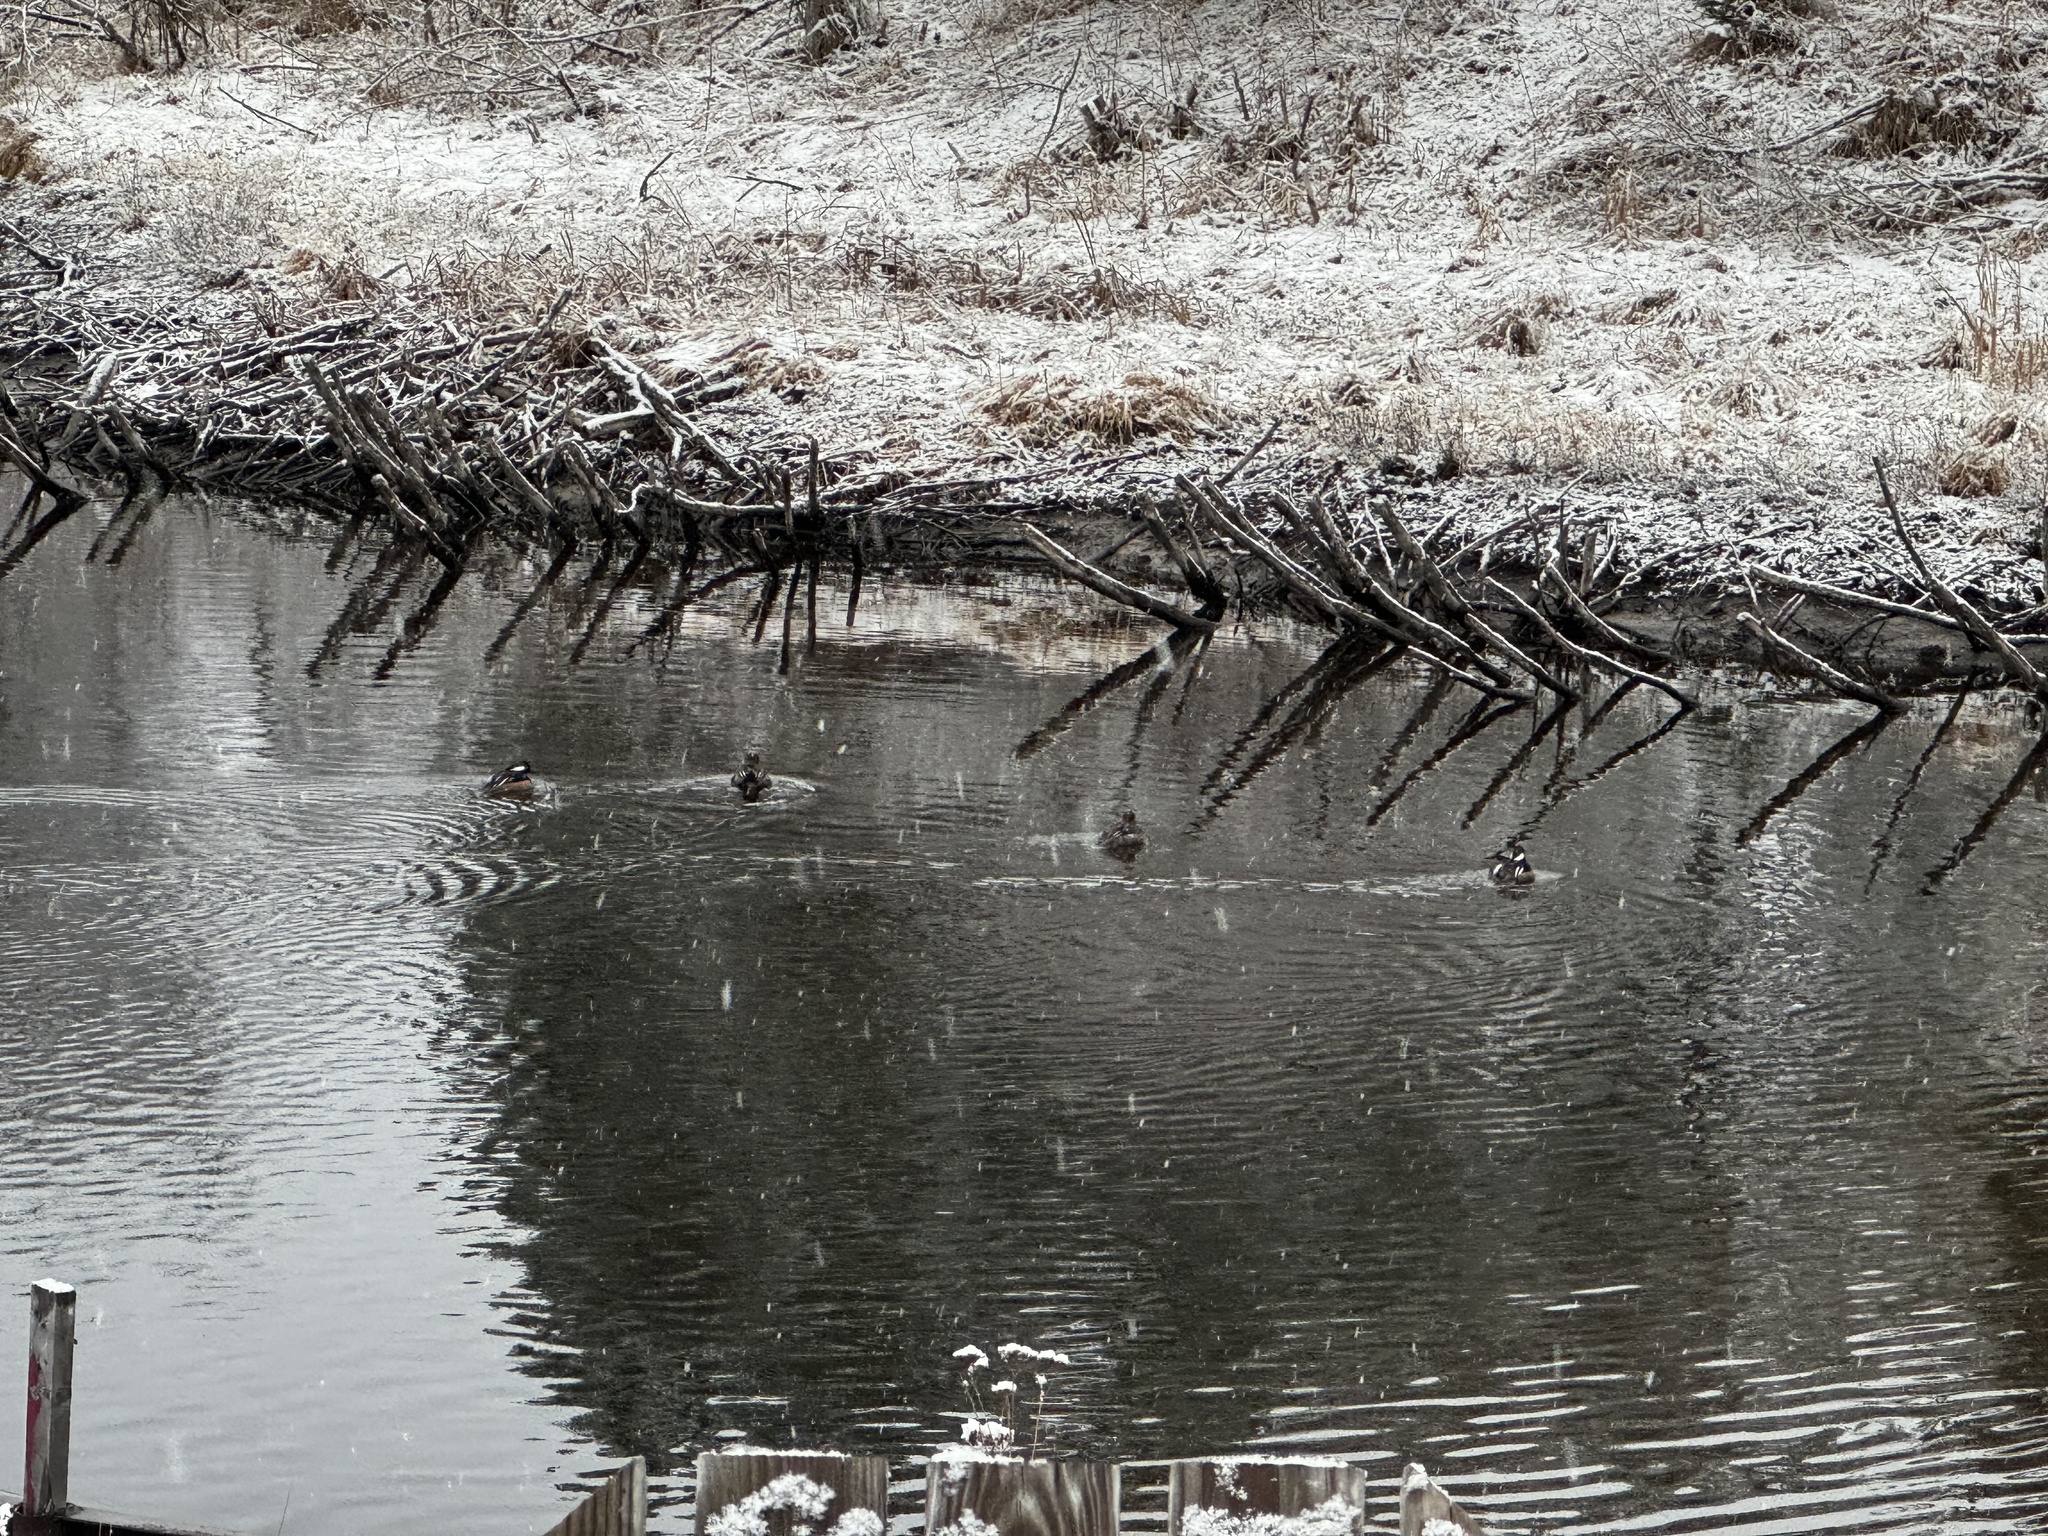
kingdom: Animalia
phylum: Chordata
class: Aves
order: Anseriformes
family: Anatidae
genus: Lophodytes
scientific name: Lophodytes cucullatus
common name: Hooded merganser
